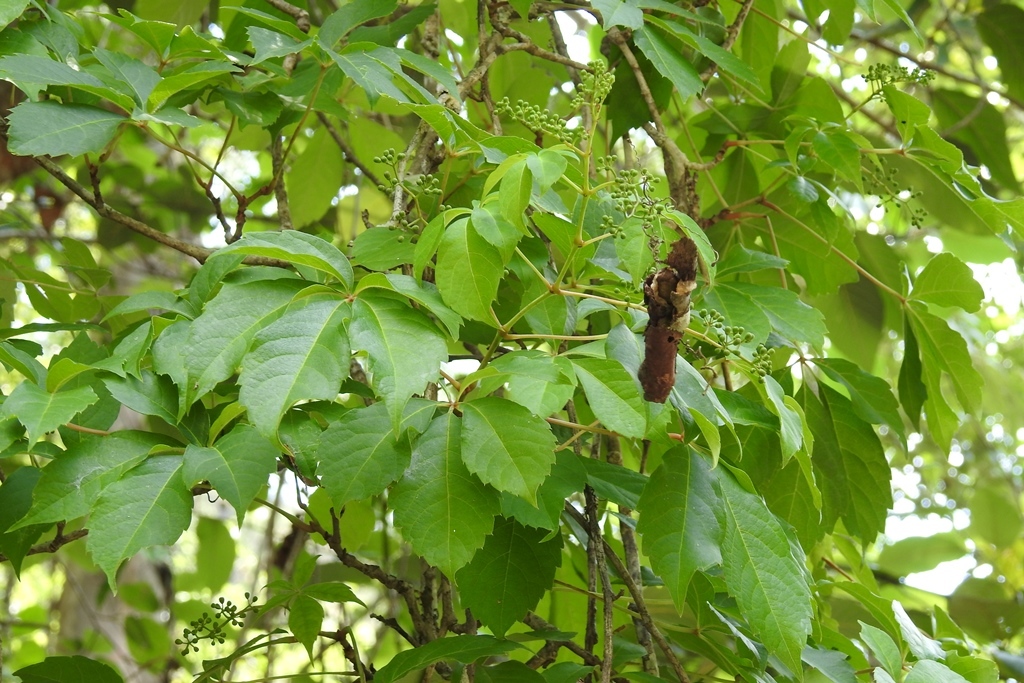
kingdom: Plantae
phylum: Tracheophyta
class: Magnoliopsida
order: Vitales
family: Vitaceae
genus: Parthenocissus
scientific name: Parthenocissus quinquefolia
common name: Virginia-creeper
